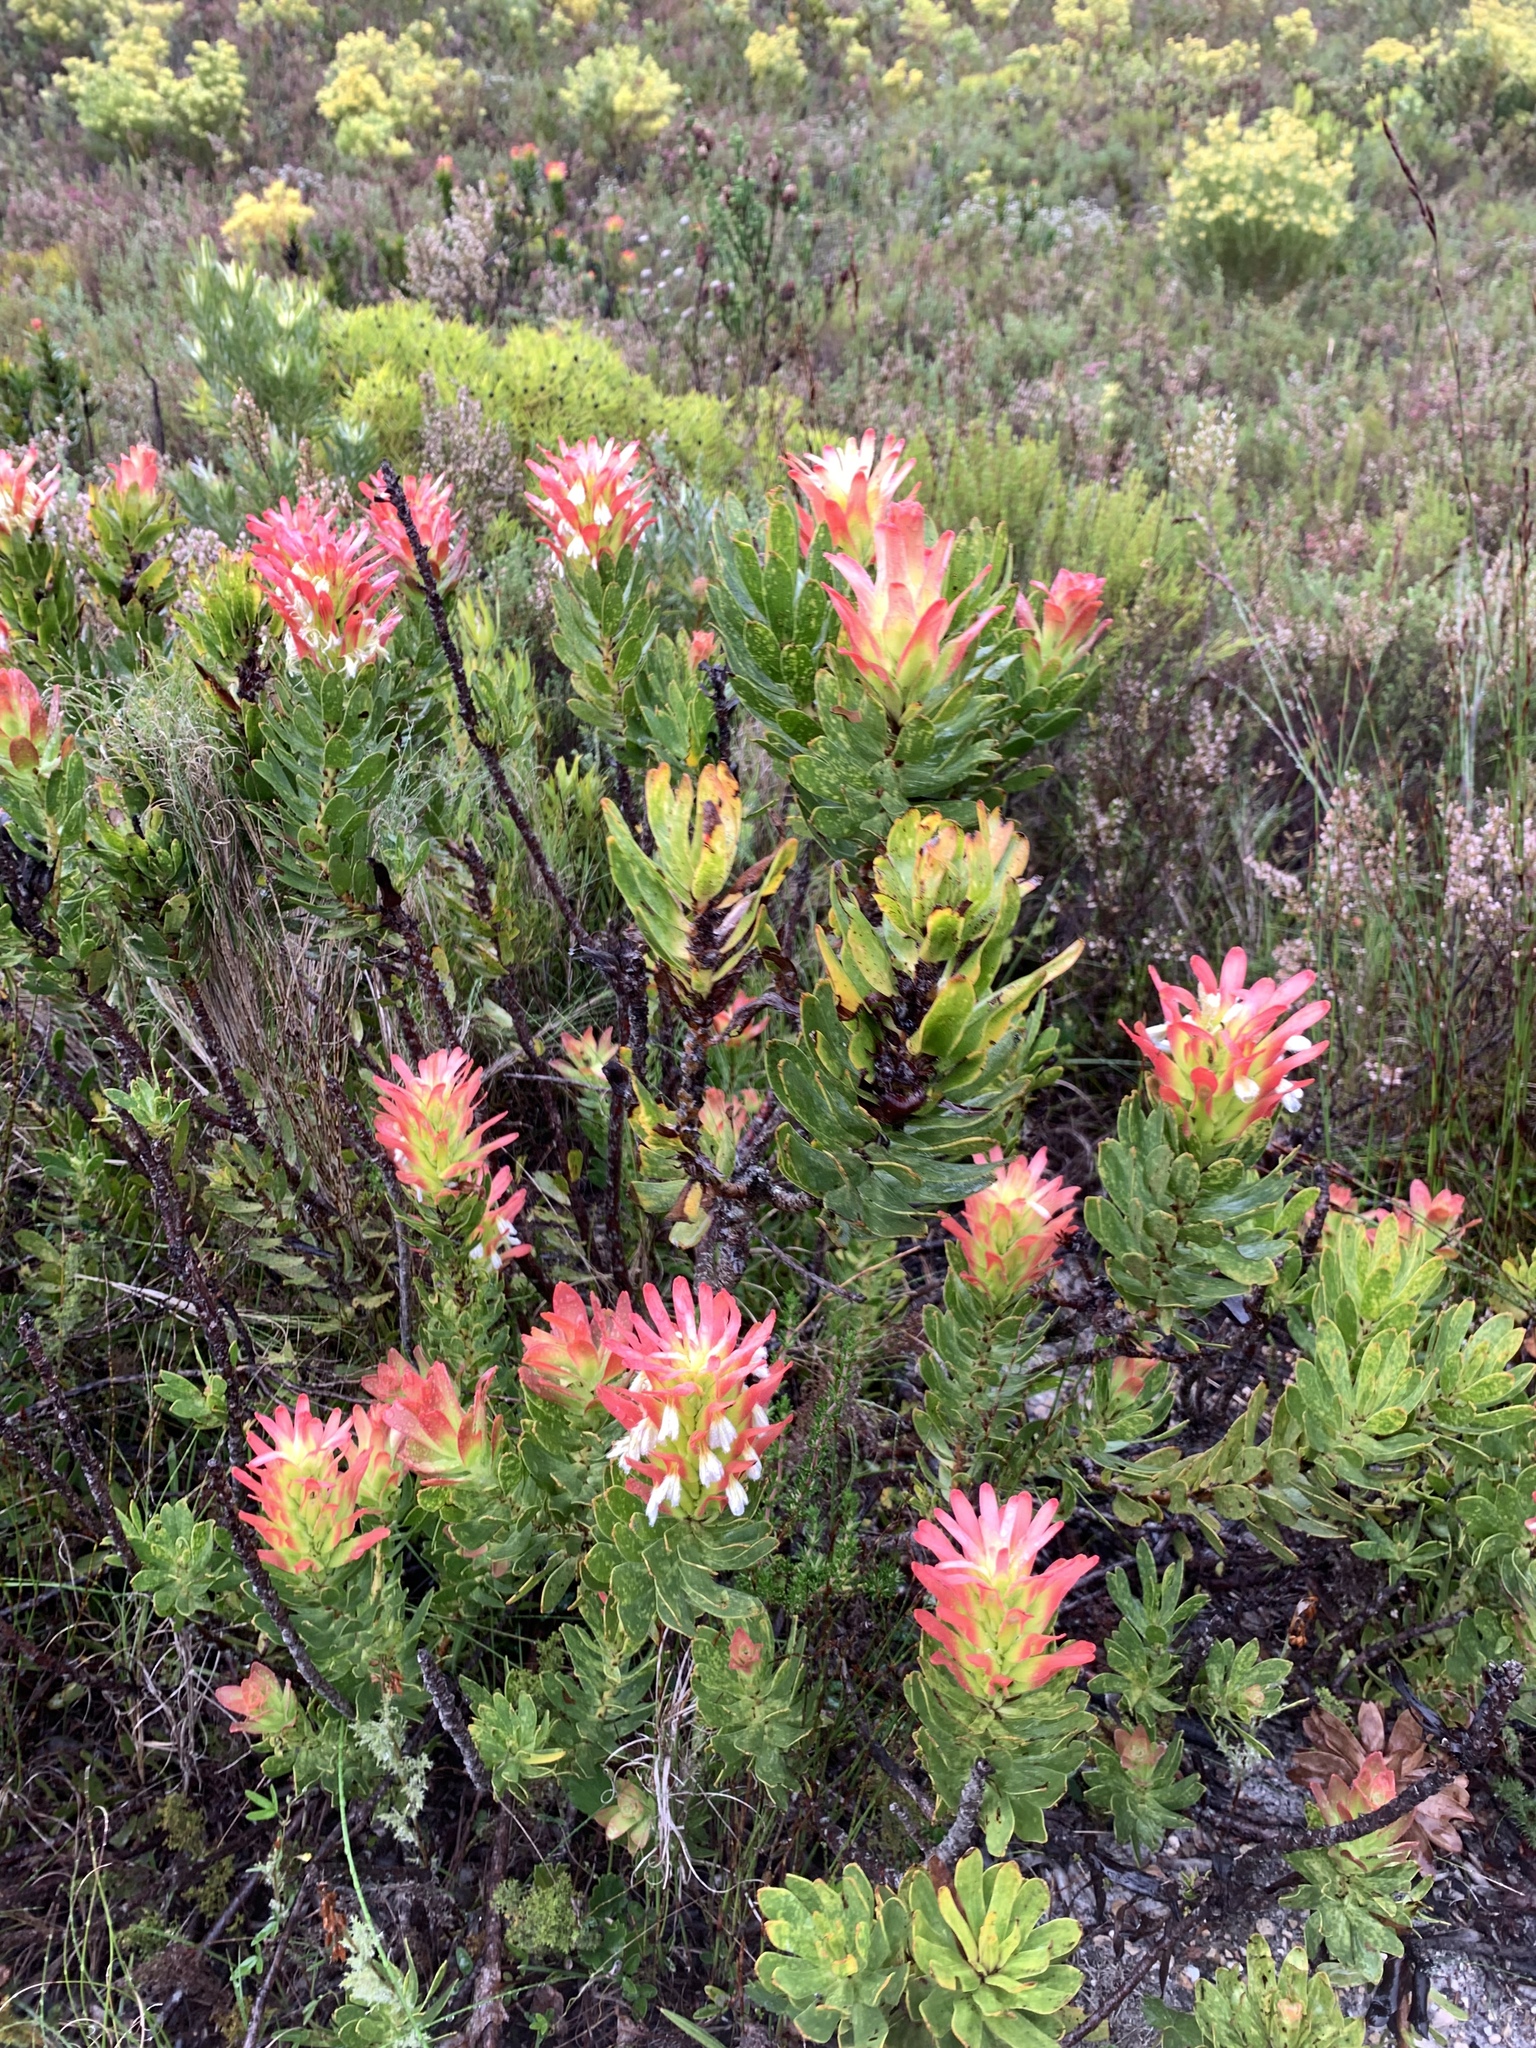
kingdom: Plantae
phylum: Tracheophyta
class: Magnoliopsida
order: Proteales
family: Proteaceae
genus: Mimetes
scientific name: Mimetes cucullatus
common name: Common pagoda
